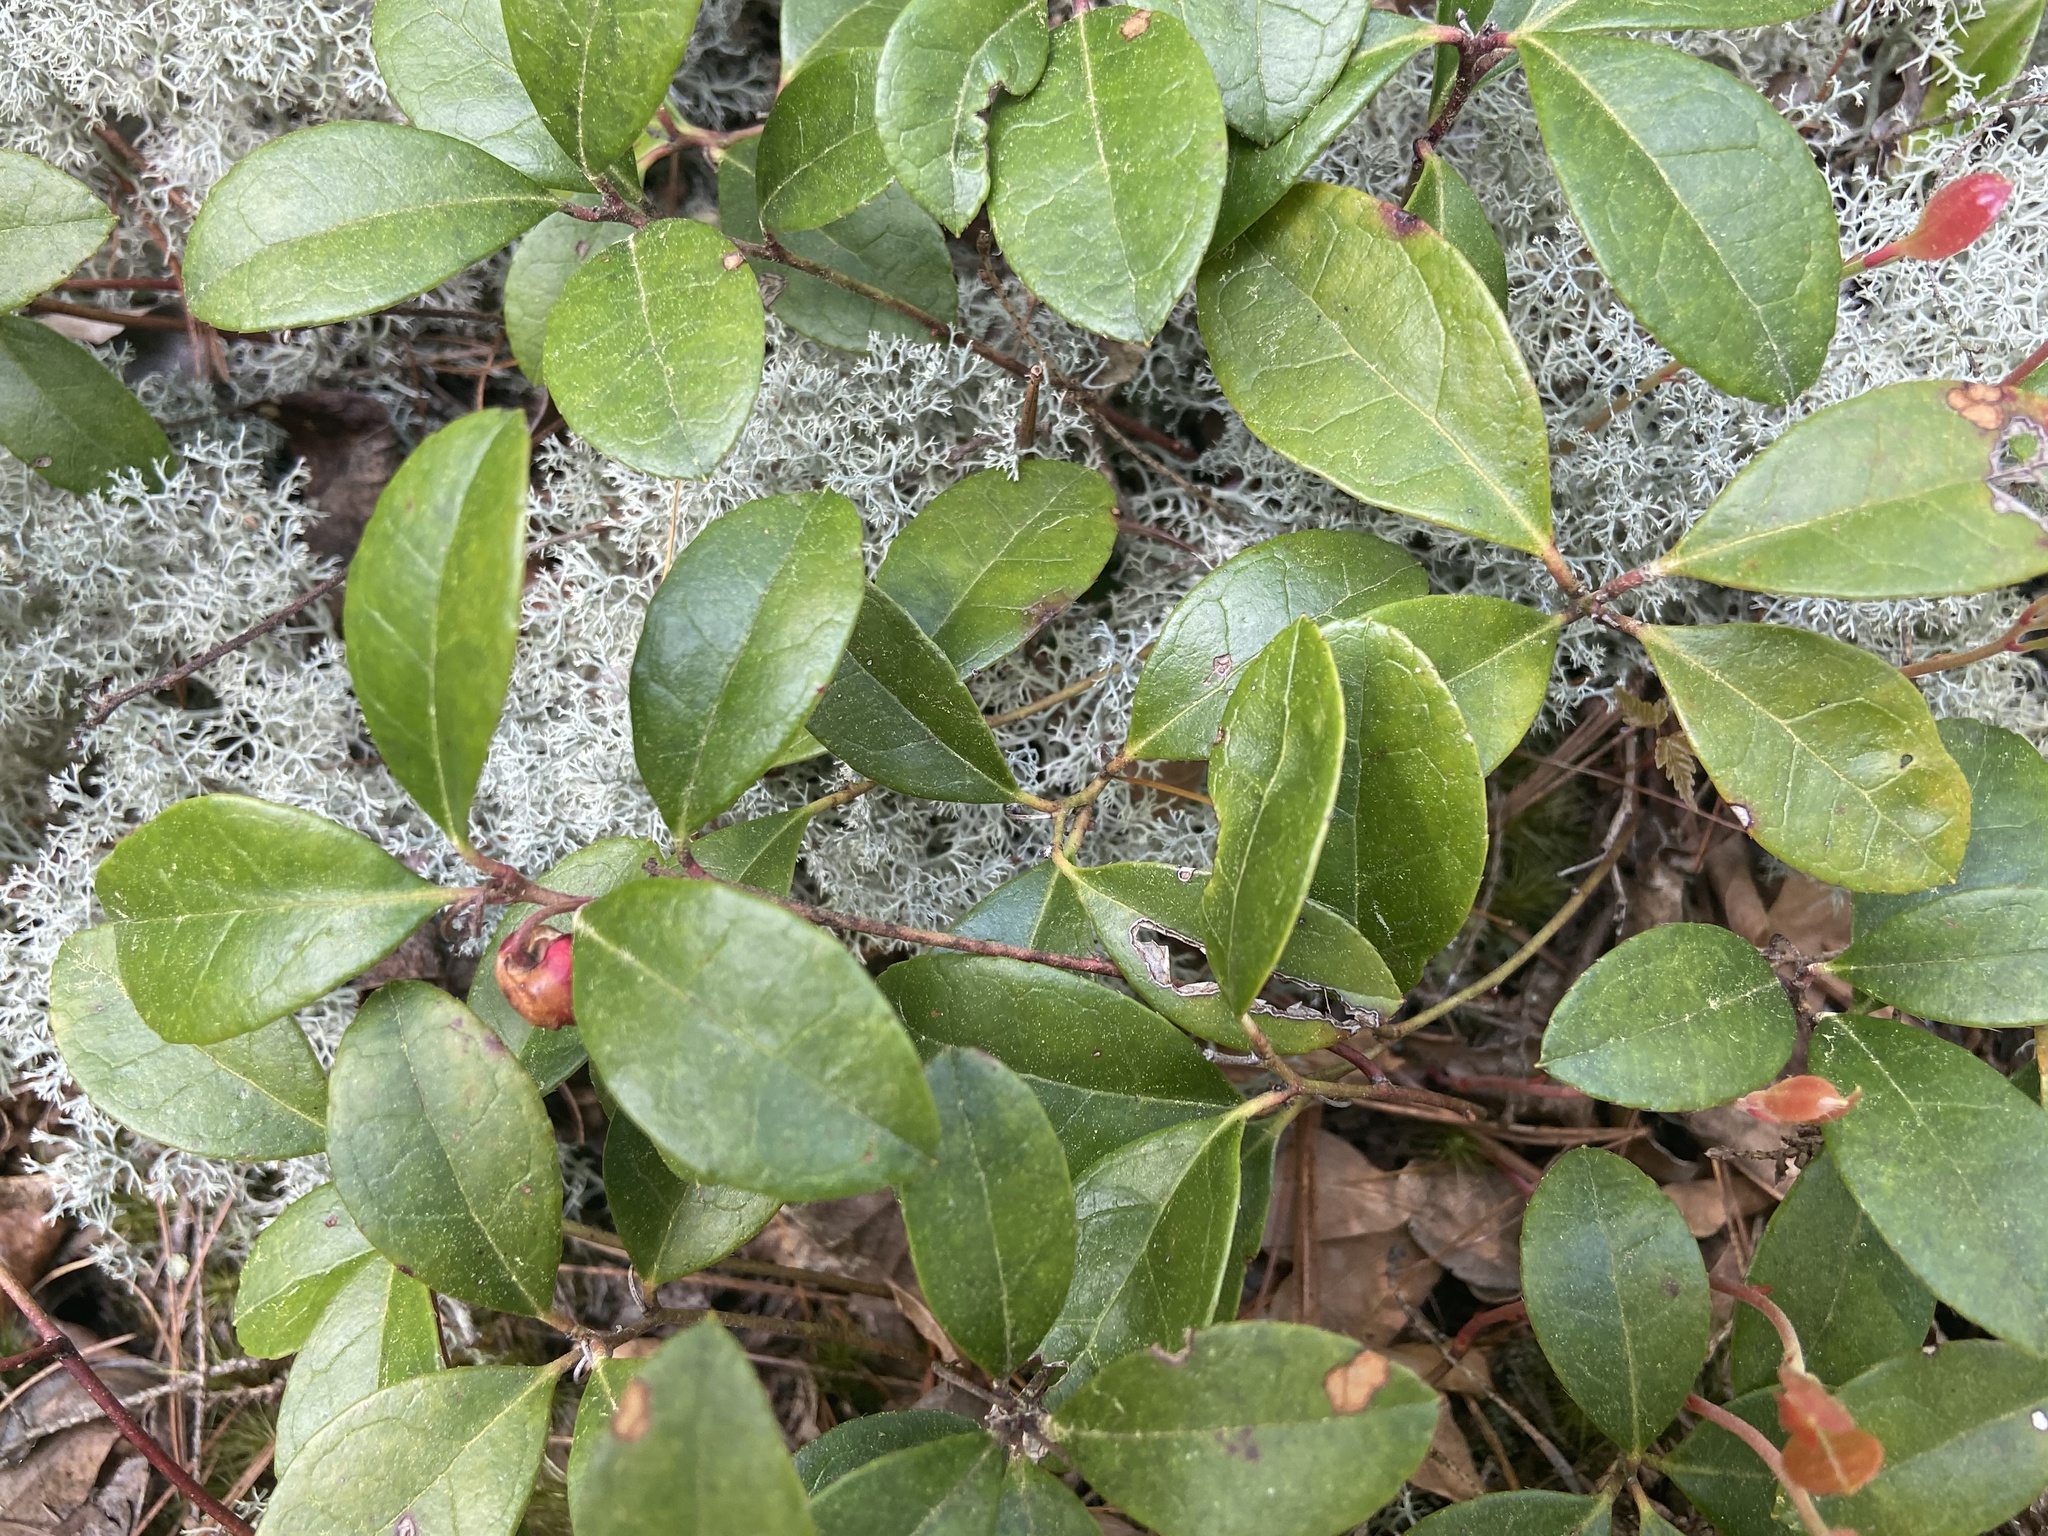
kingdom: Plantae
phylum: Tracheophyta
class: Magnoliopsida
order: Ericales
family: Ericaceae
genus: Gaultheria
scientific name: Gaultheria procumbens
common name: Checkerberry
